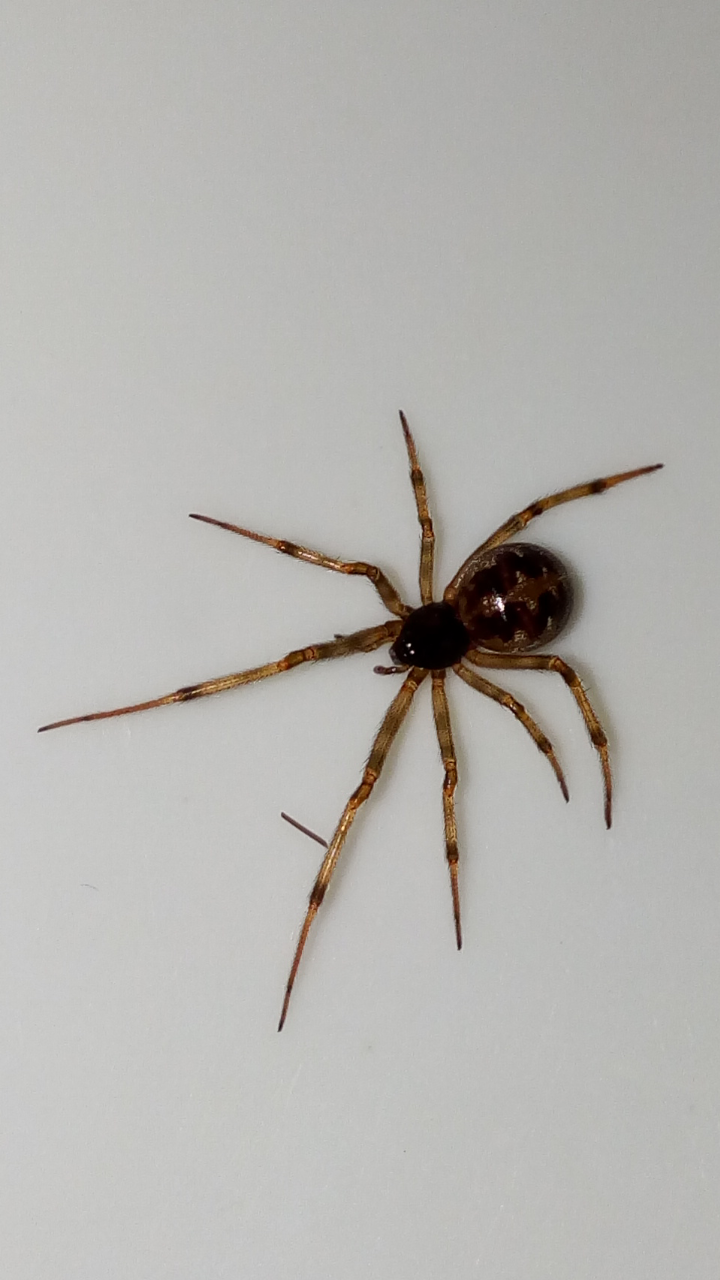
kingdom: Animalia
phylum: Arthropoda
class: Arachnida
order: Araneae
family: Theridiidae
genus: Steatoda
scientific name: Steatoda triangulosa
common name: Triangulate bud spider
